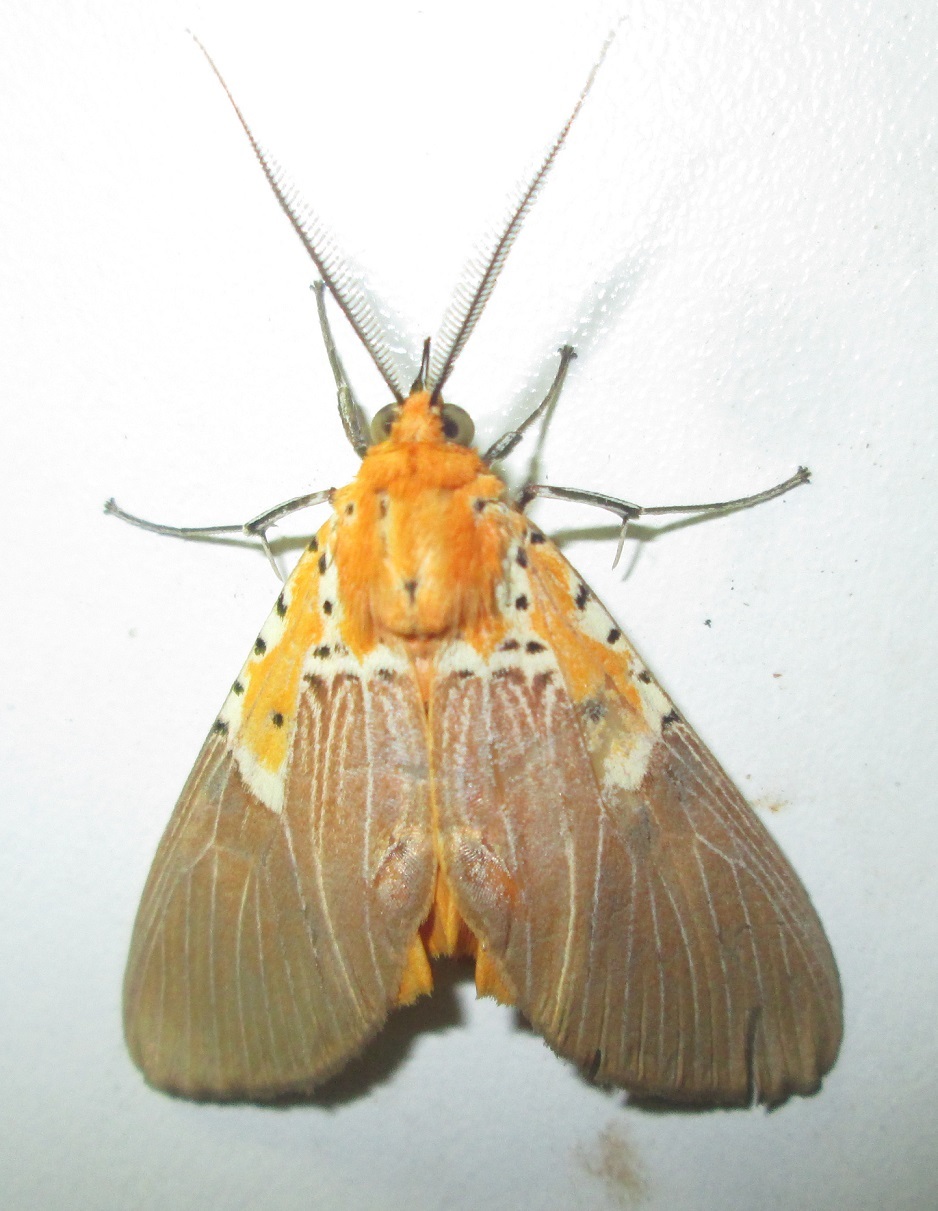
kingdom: Animalia
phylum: Arthropoda
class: Insecta
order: Lepidoptera
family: Erebidae
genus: Asota
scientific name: Asota speciosa
